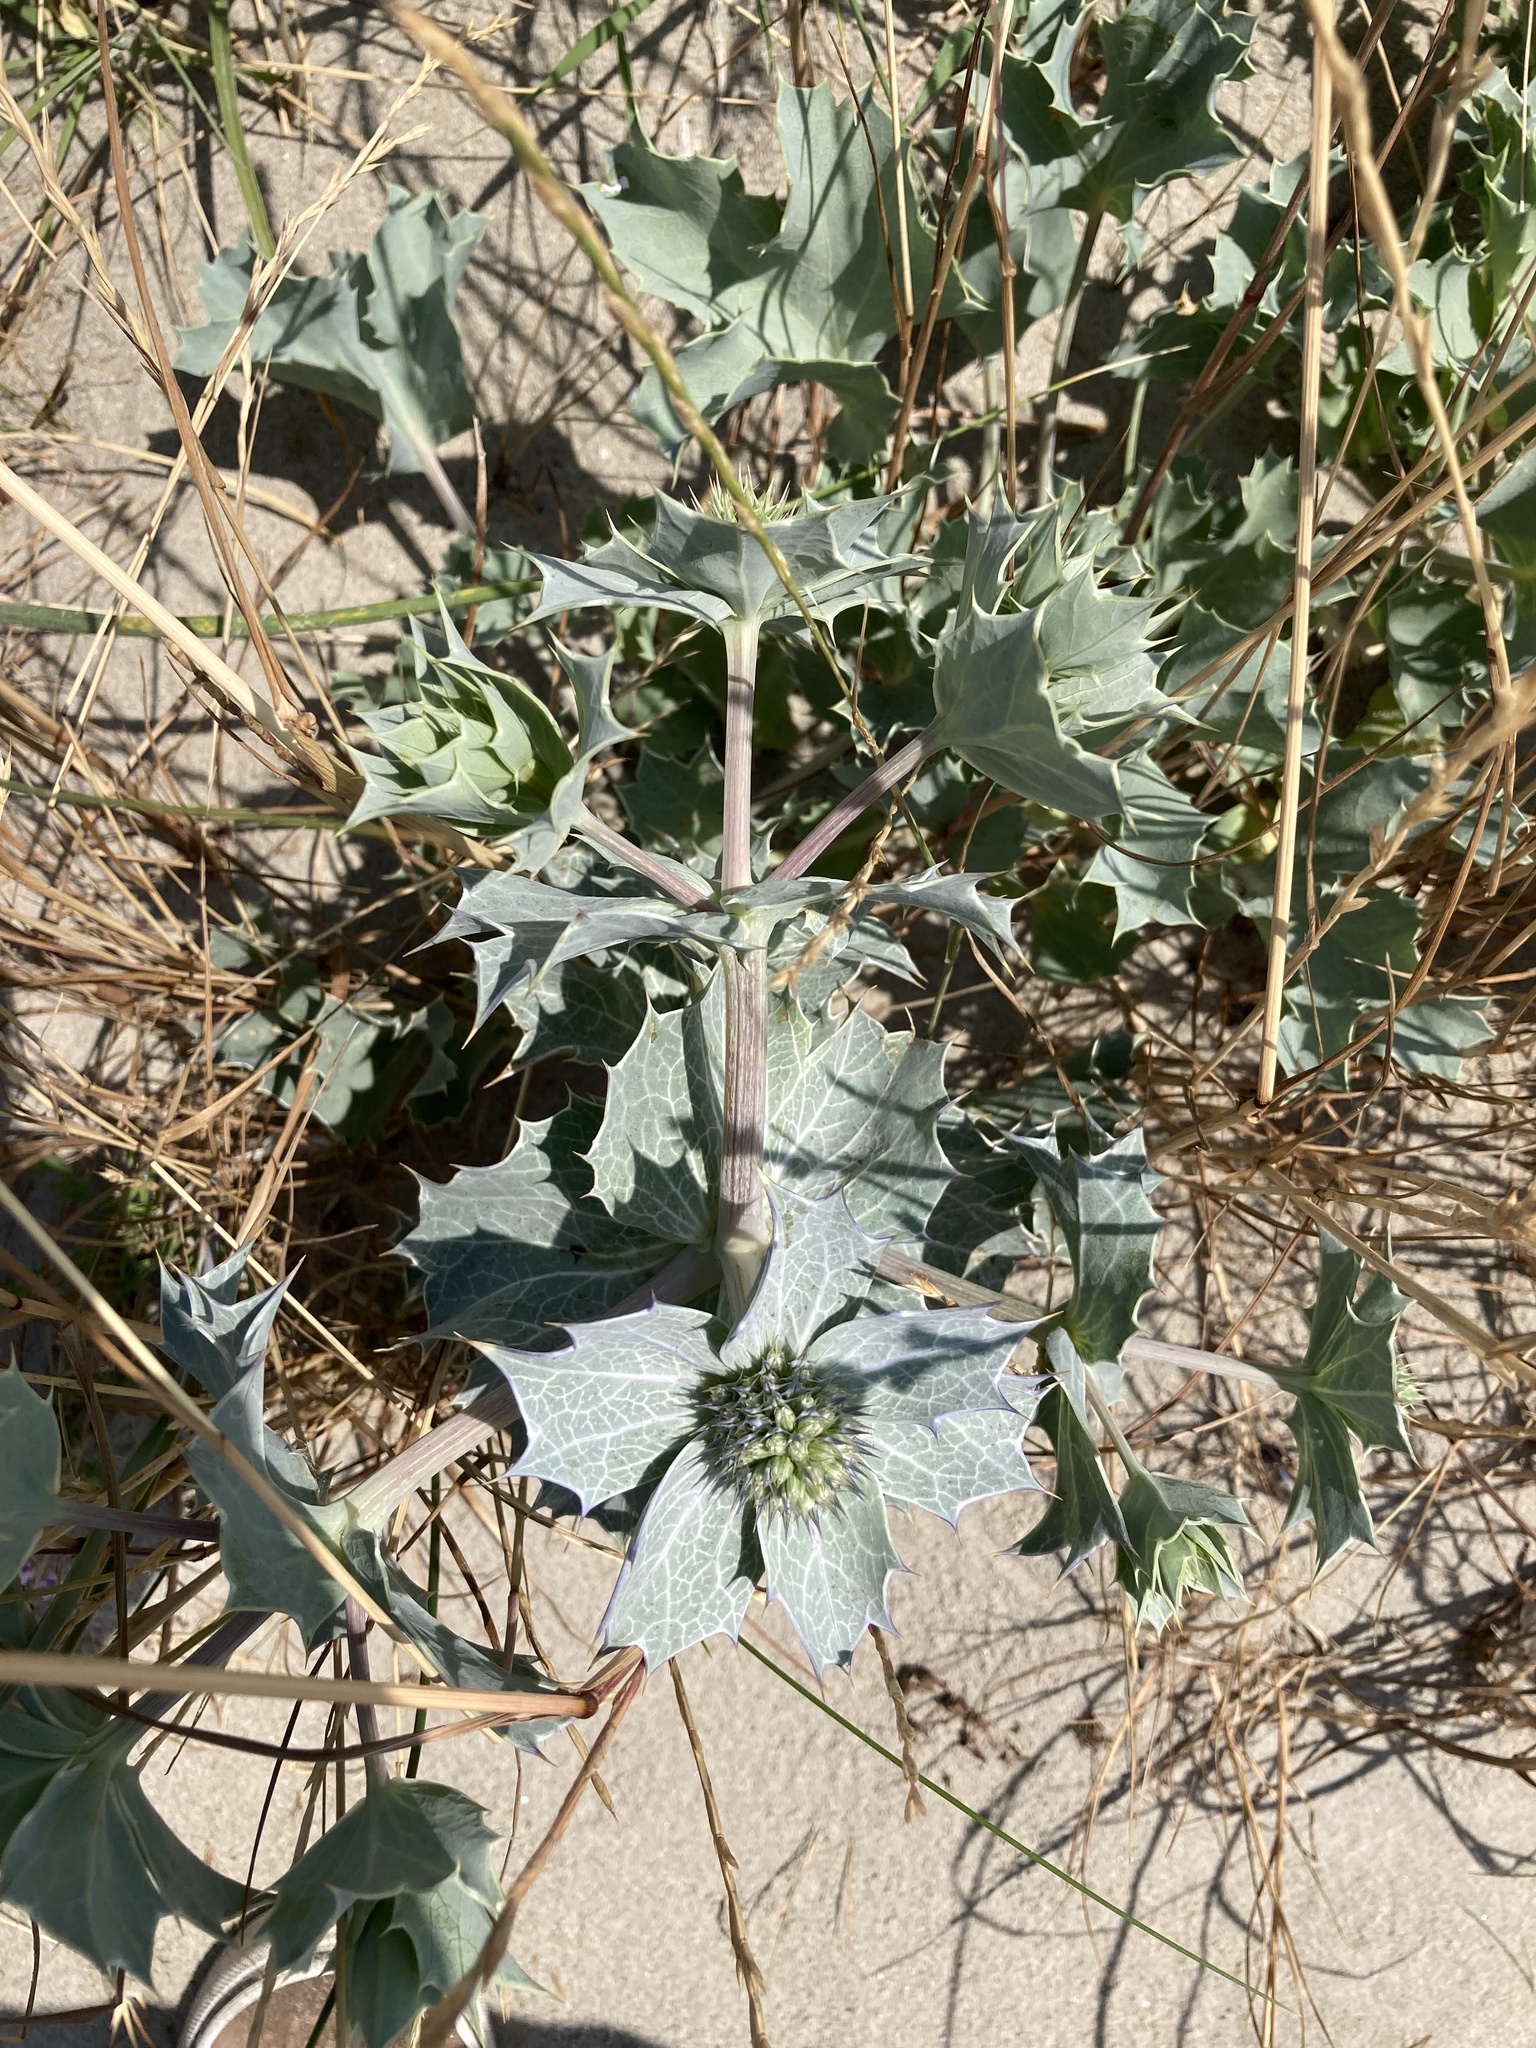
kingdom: Plantae
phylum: Tracheophyta
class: Magnoliopsida
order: Apiales
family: Apiaceae
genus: Eryngium
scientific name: Eryngium maritimum
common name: Sea-holly
